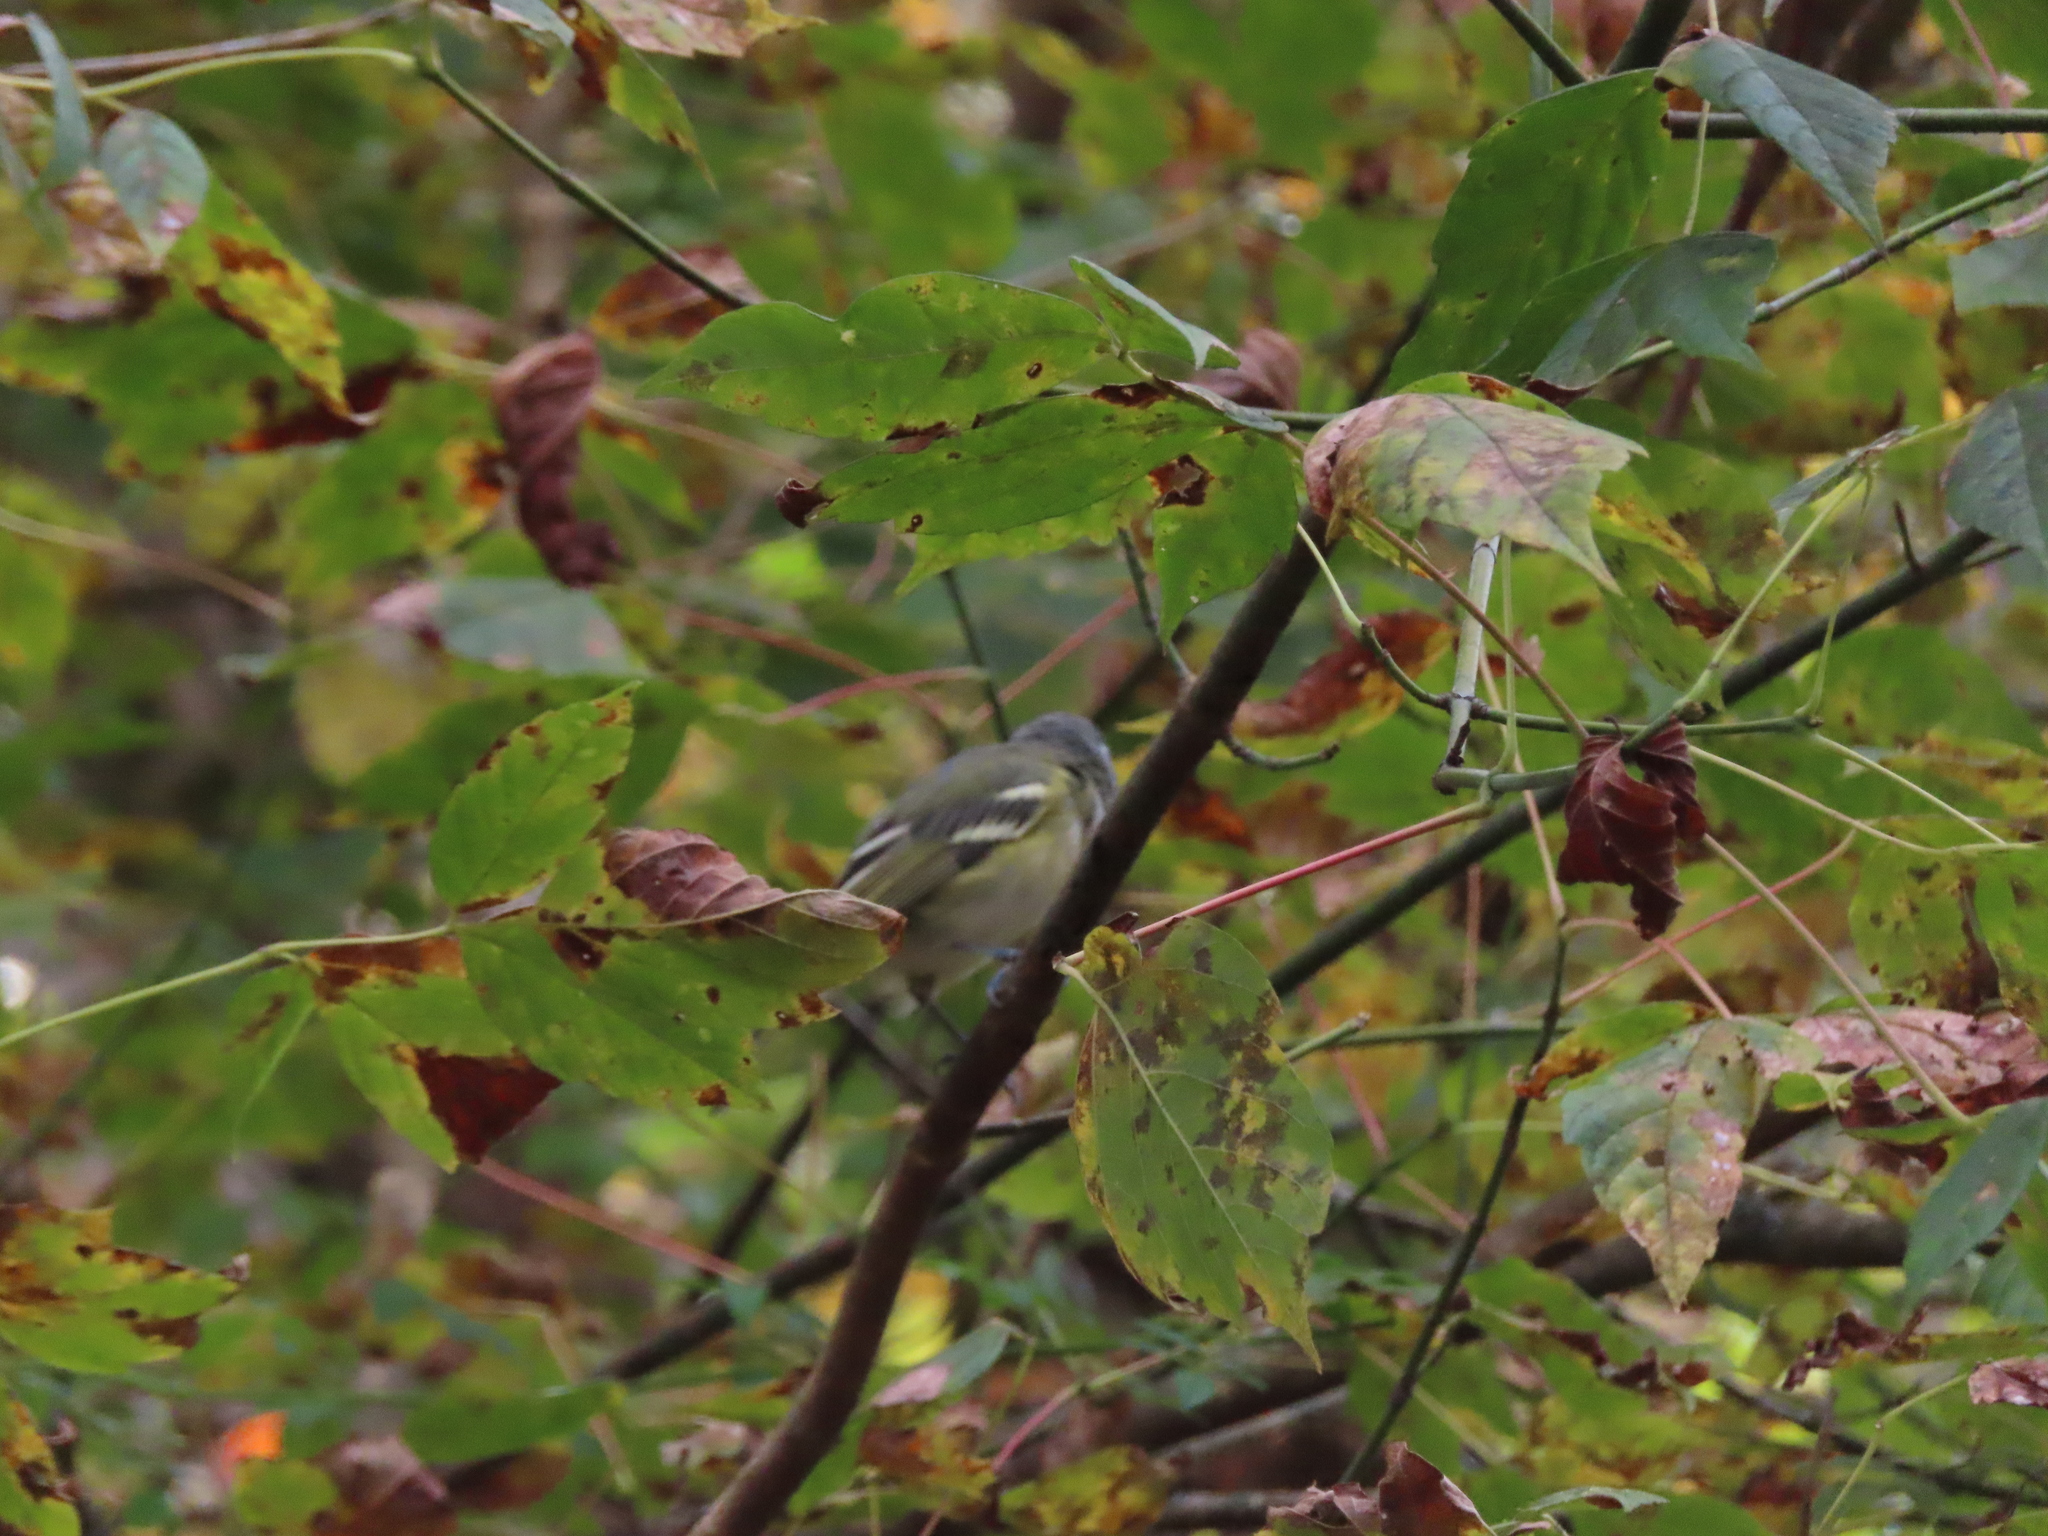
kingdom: Animalia
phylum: Chordata
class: Aves
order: Passeriformes
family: Vireonidae
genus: Vireo
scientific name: Vireo solitarius
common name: Blue-headed vireo
